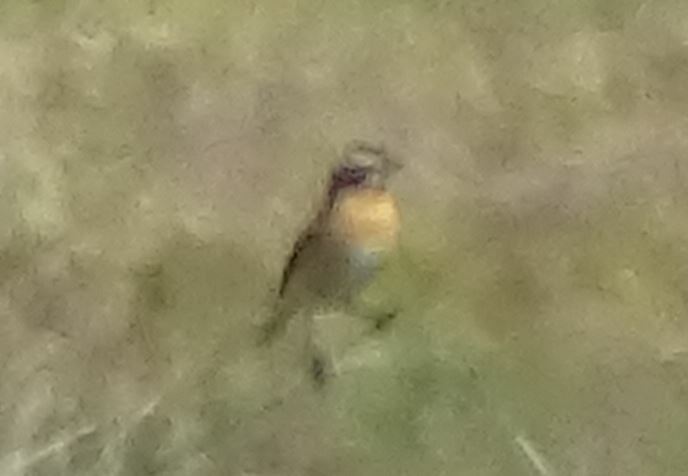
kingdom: Animalia
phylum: Chordata
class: Aves
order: Passeriformes
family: Muscicapidae
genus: Saxicola
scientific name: Saxicola rubetra
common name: Whinchat
